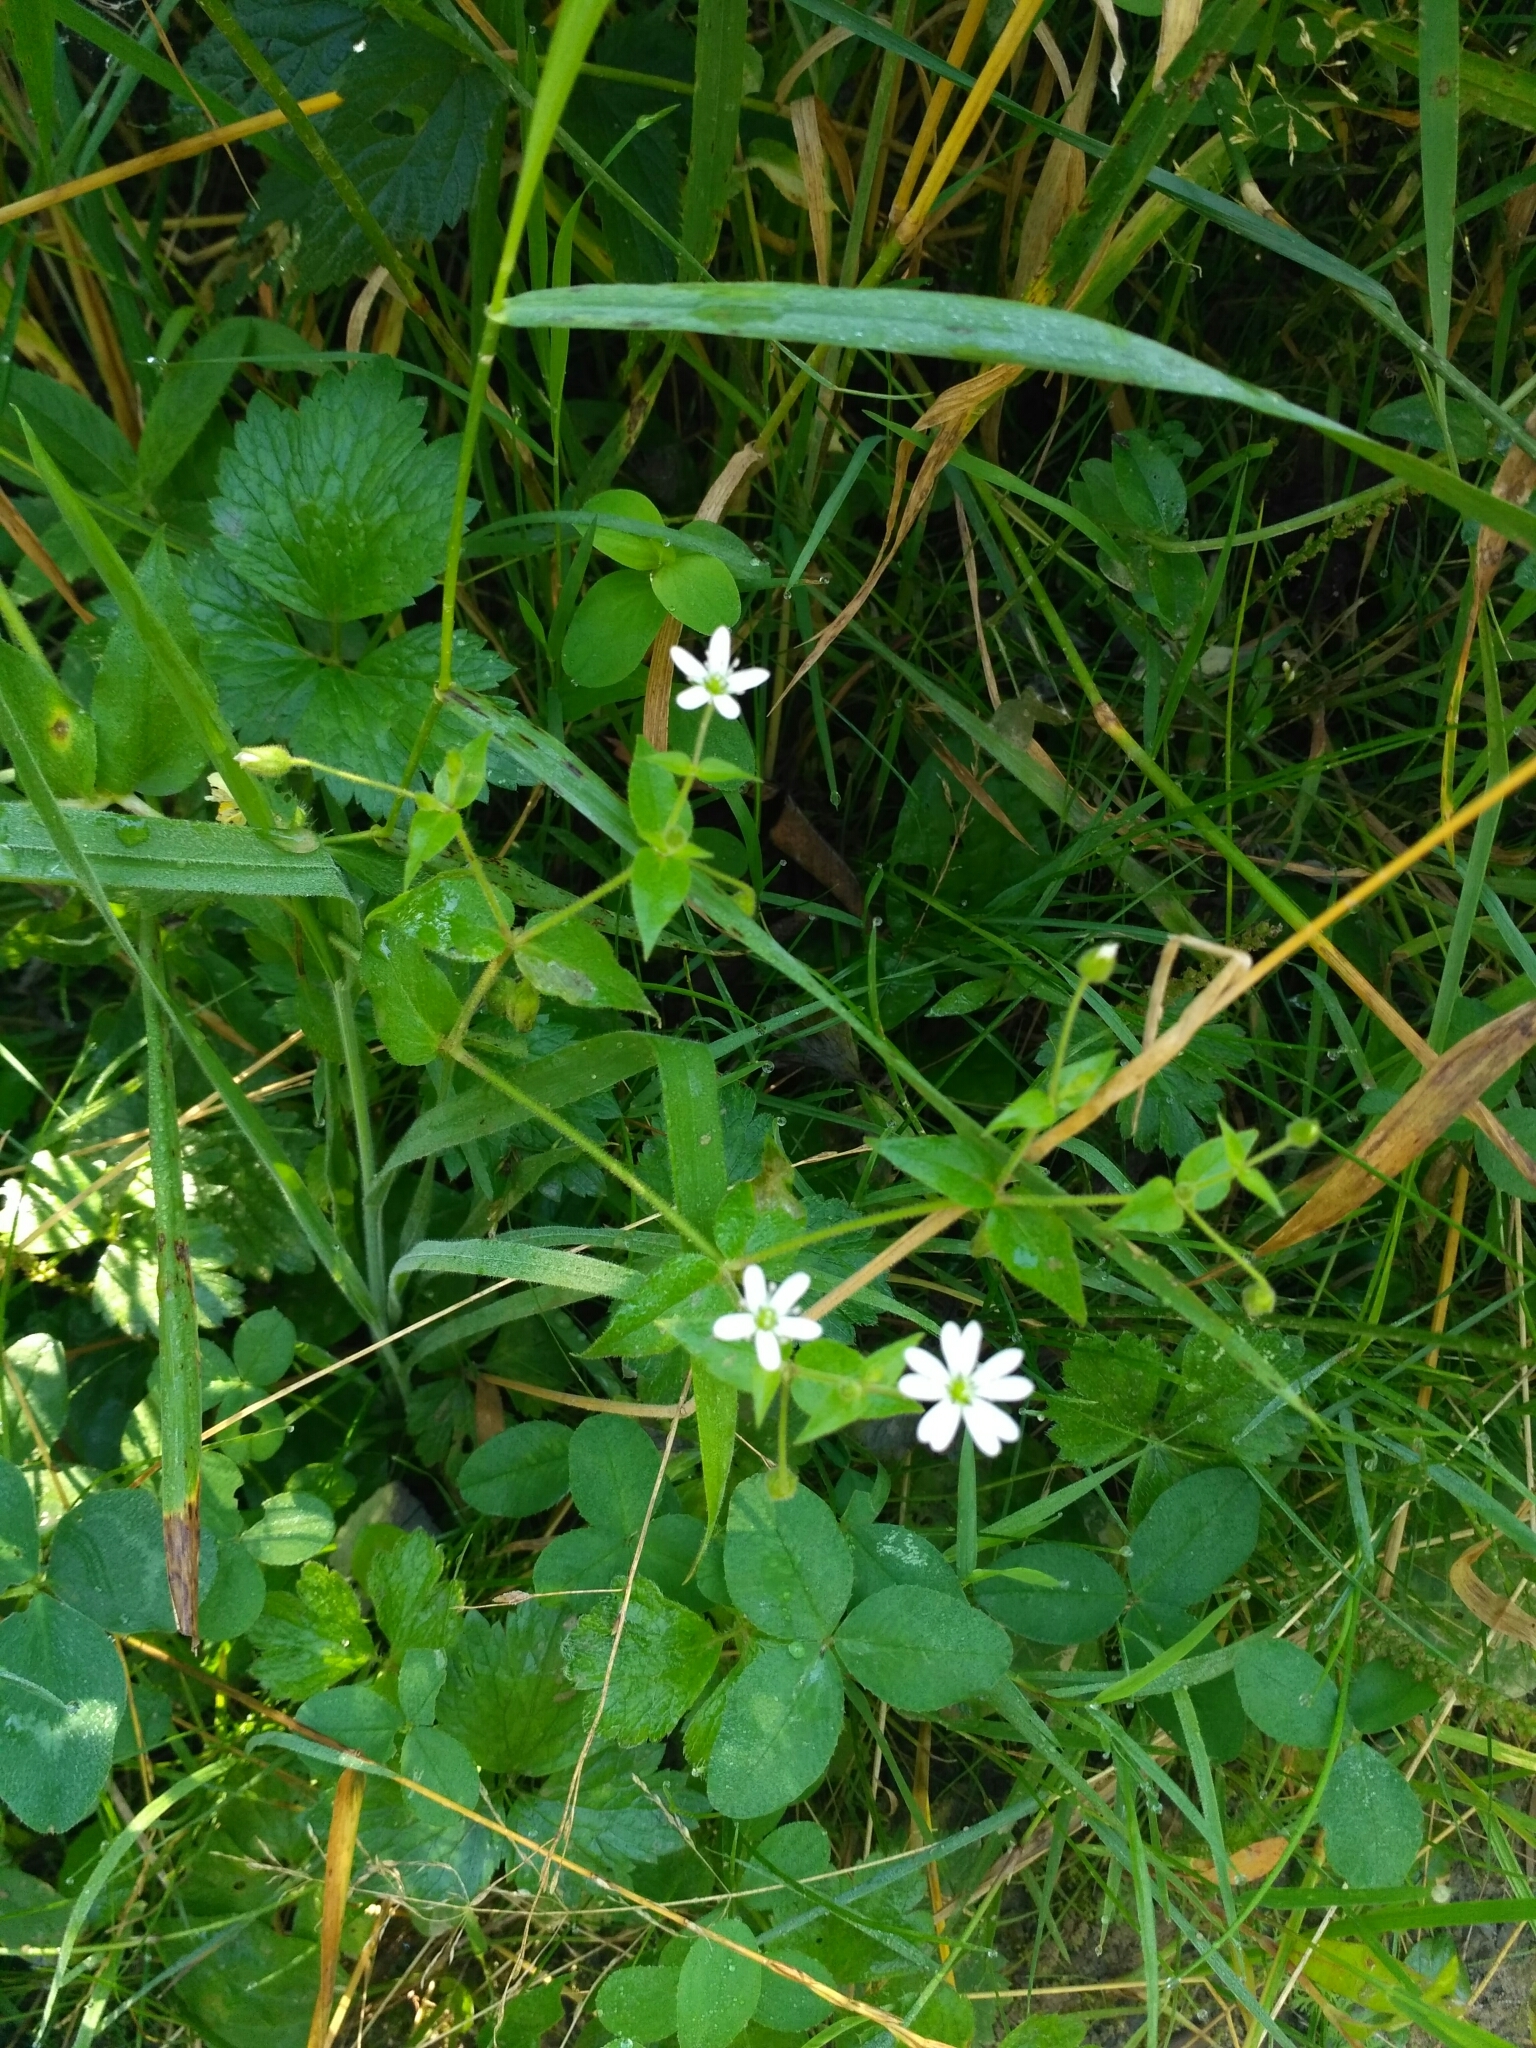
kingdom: Plantae
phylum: Tracheophyta
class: Magnoliopsida
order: Caryophyllales
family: Caryophyllaceae
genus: Stellaria
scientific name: Stellaria aquatica
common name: Water chickweed
